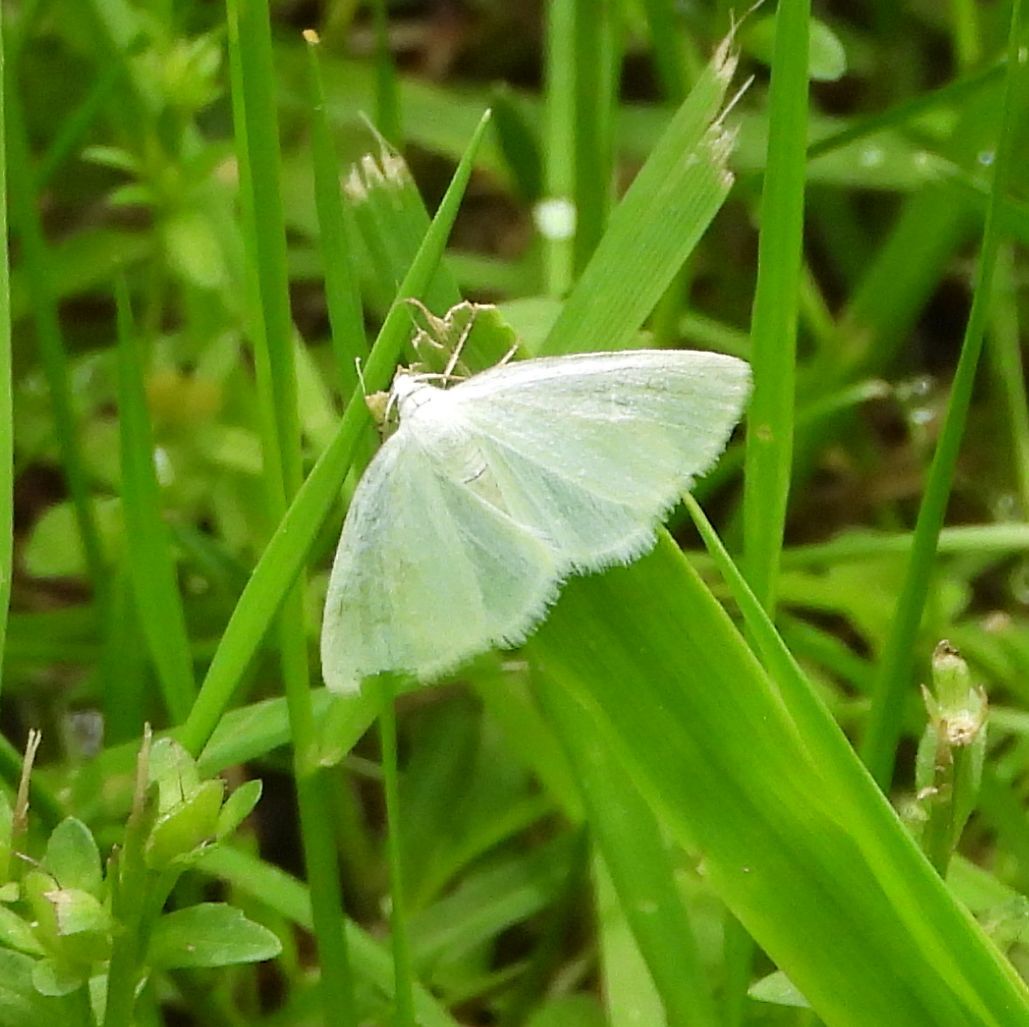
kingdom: Animalia
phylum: Arthropoda
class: Insecta
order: Lepidoptera
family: Geometridae
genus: Lomographa
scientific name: Lomographa vestaliata
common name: White spring moth
